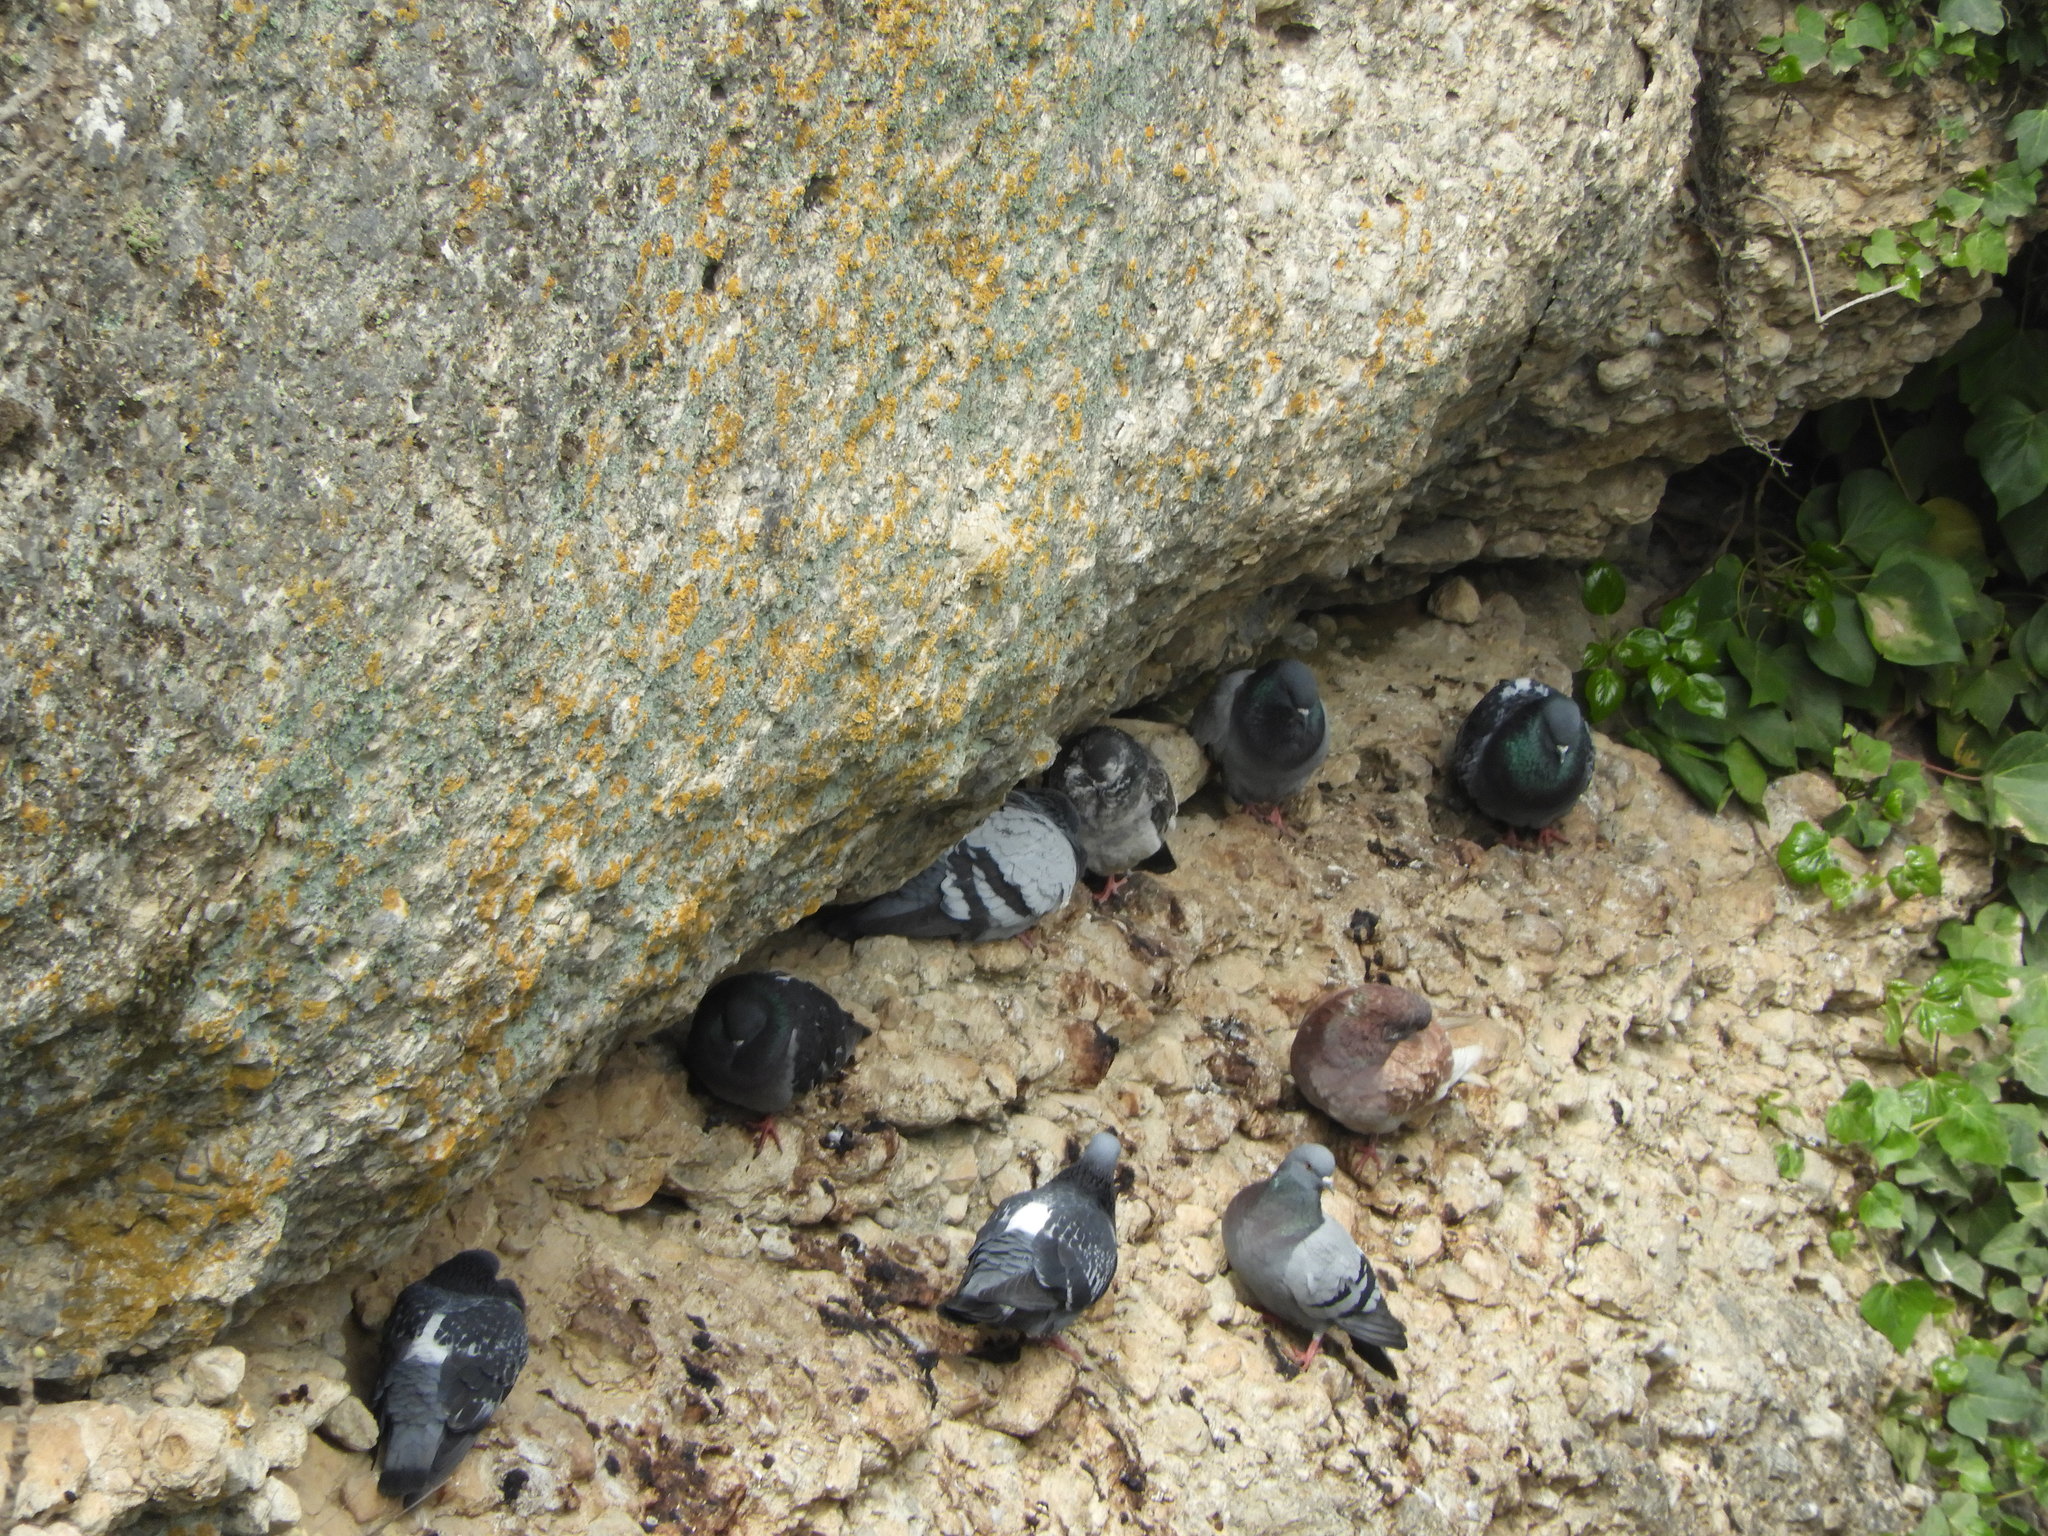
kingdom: Animalia
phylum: Chordata
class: Aves
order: Columbiformes
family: Columbidae
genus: Columba
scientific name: Columba livia
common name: Rock pigeon
